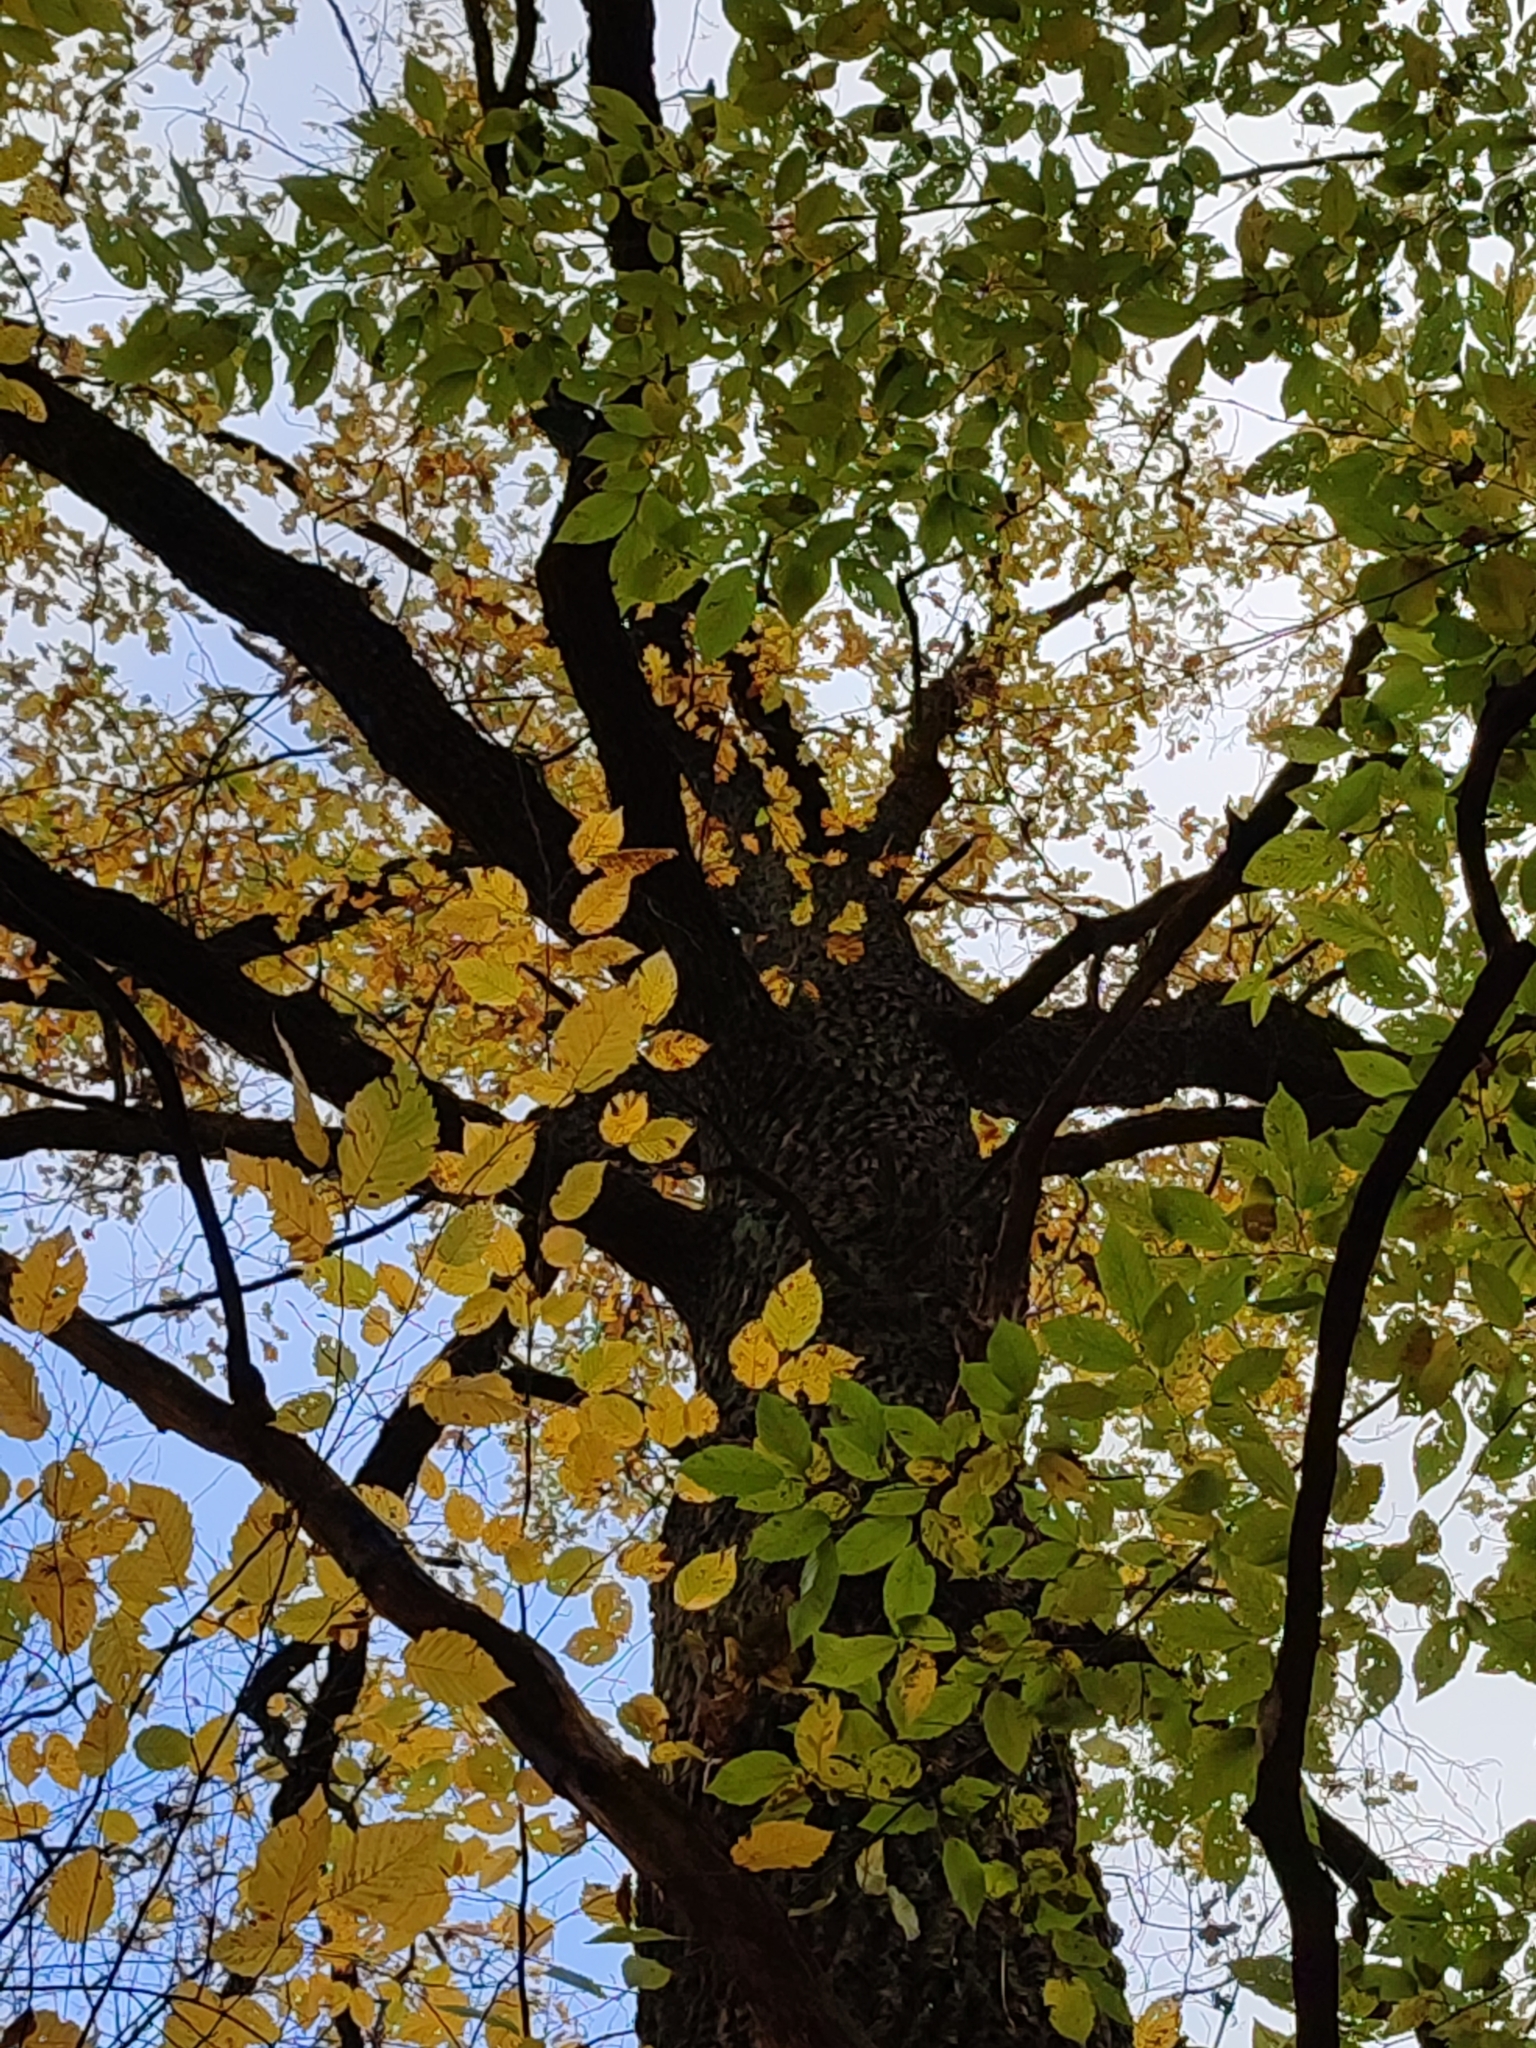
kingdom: Plantae
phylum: Tracheophyta
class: Magnoliopsida
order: Fagales
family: Fagaceae
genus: Quercus
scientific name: Quercus robur
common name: Pedunculate oak
